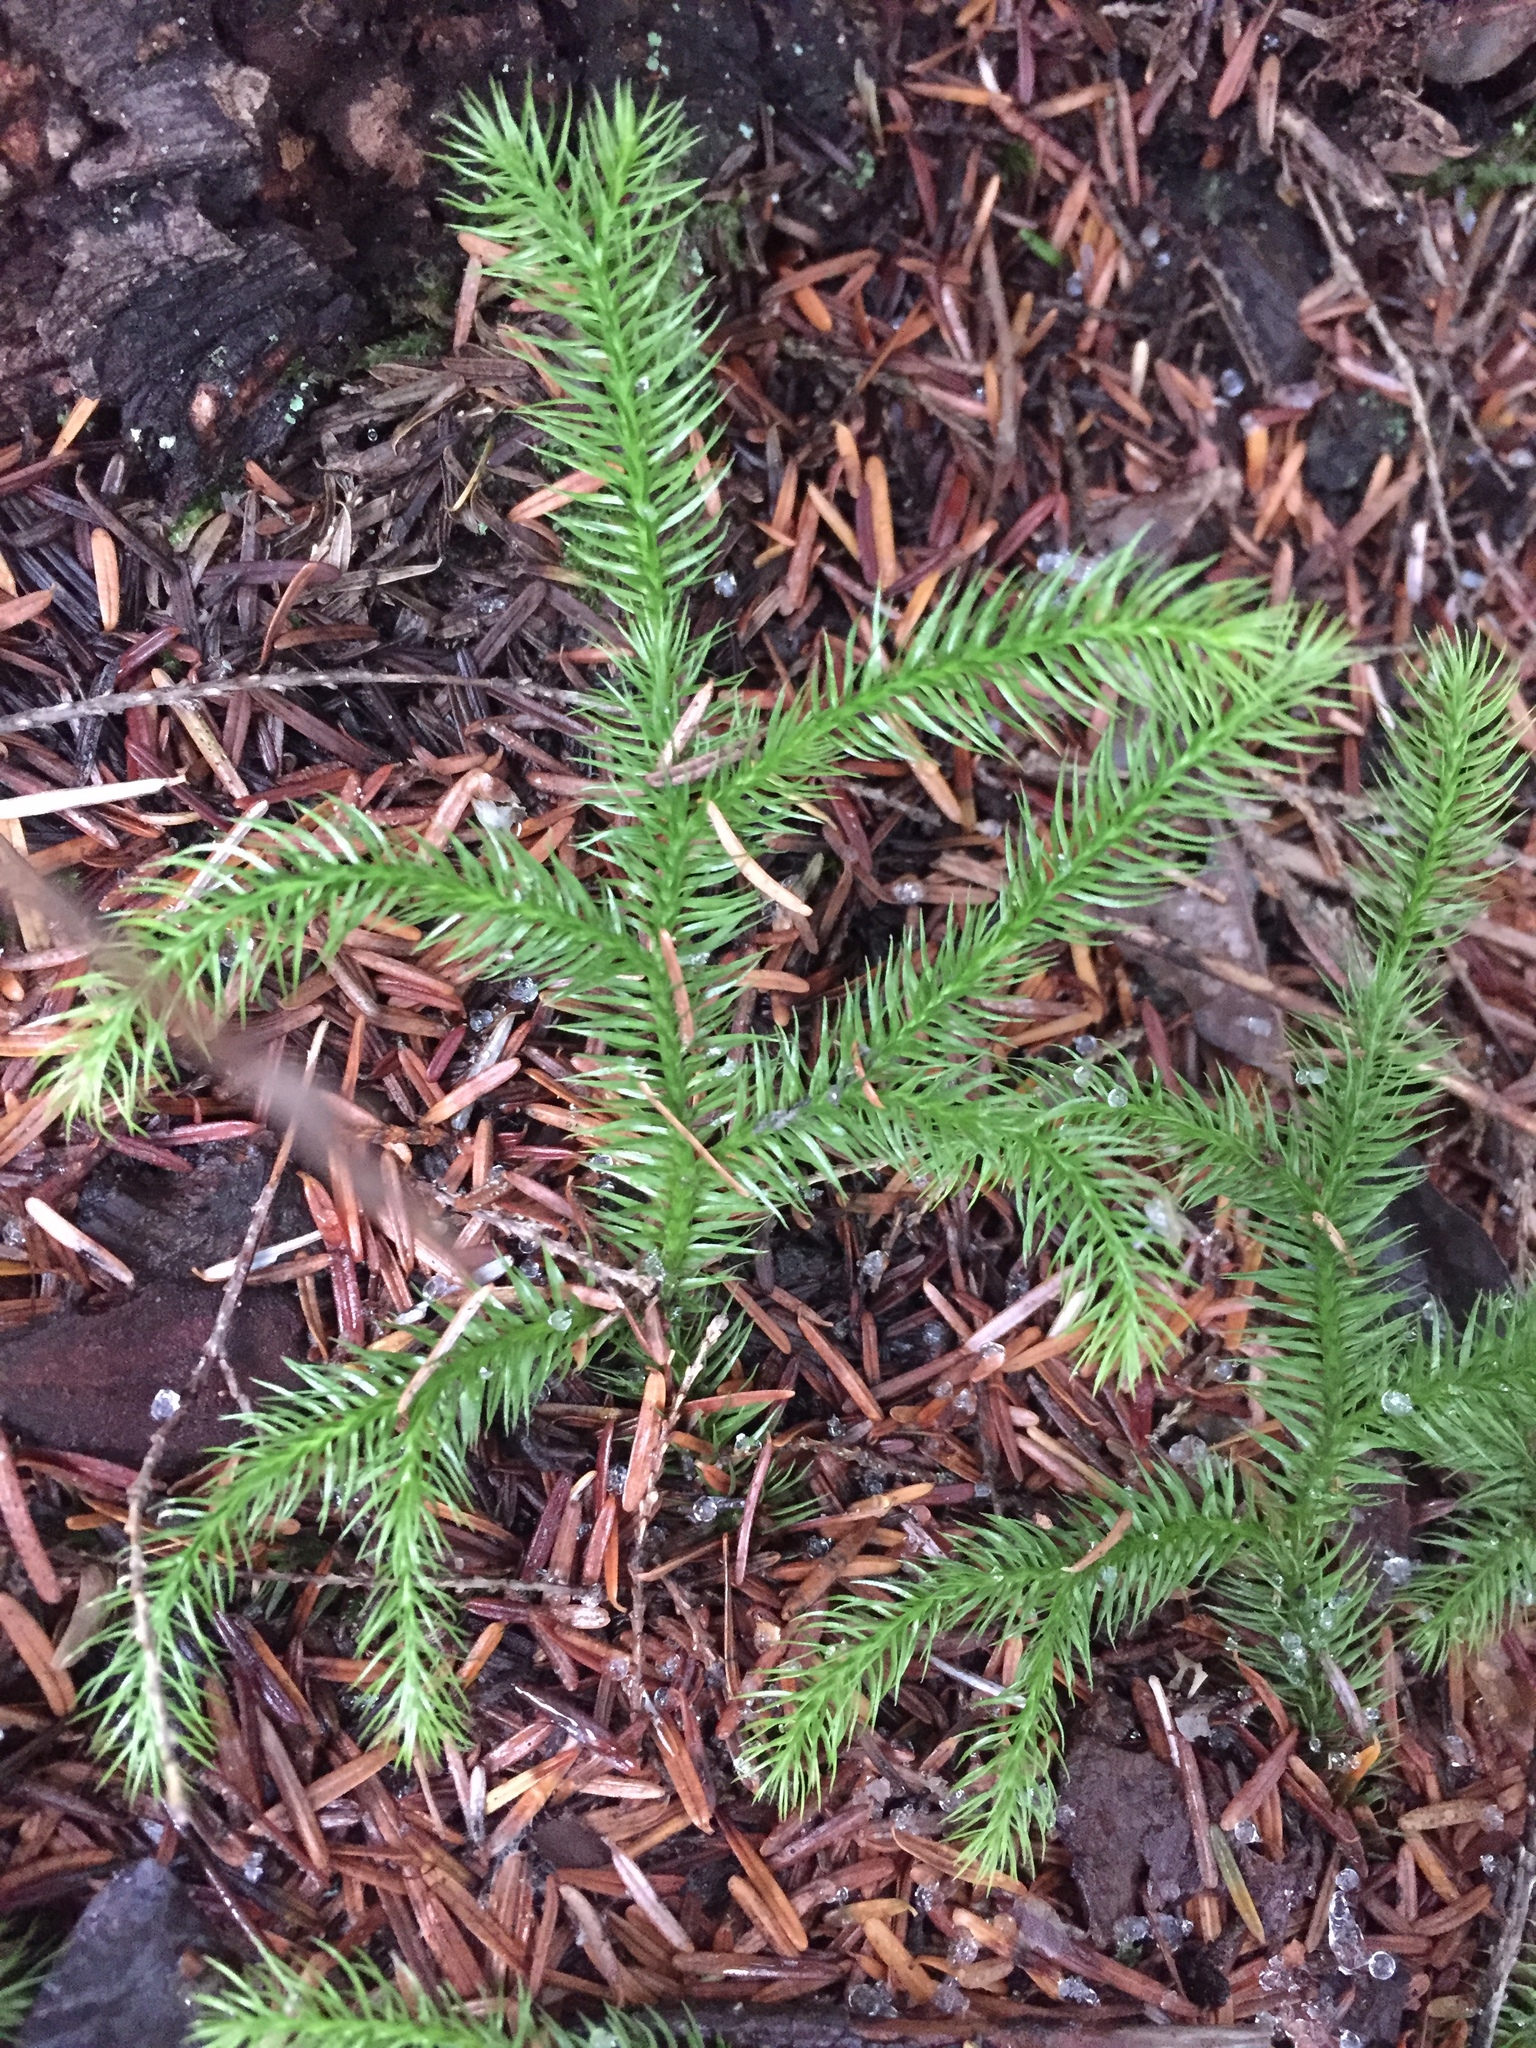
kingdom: Plantae
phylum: Tracheophyta
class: Lycopodiopsida
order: Lycopodiales
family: Lycopodiaceae
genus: Lycopodium
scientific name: Lycopodium clavatum
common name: Stag's-horn clubmoss
